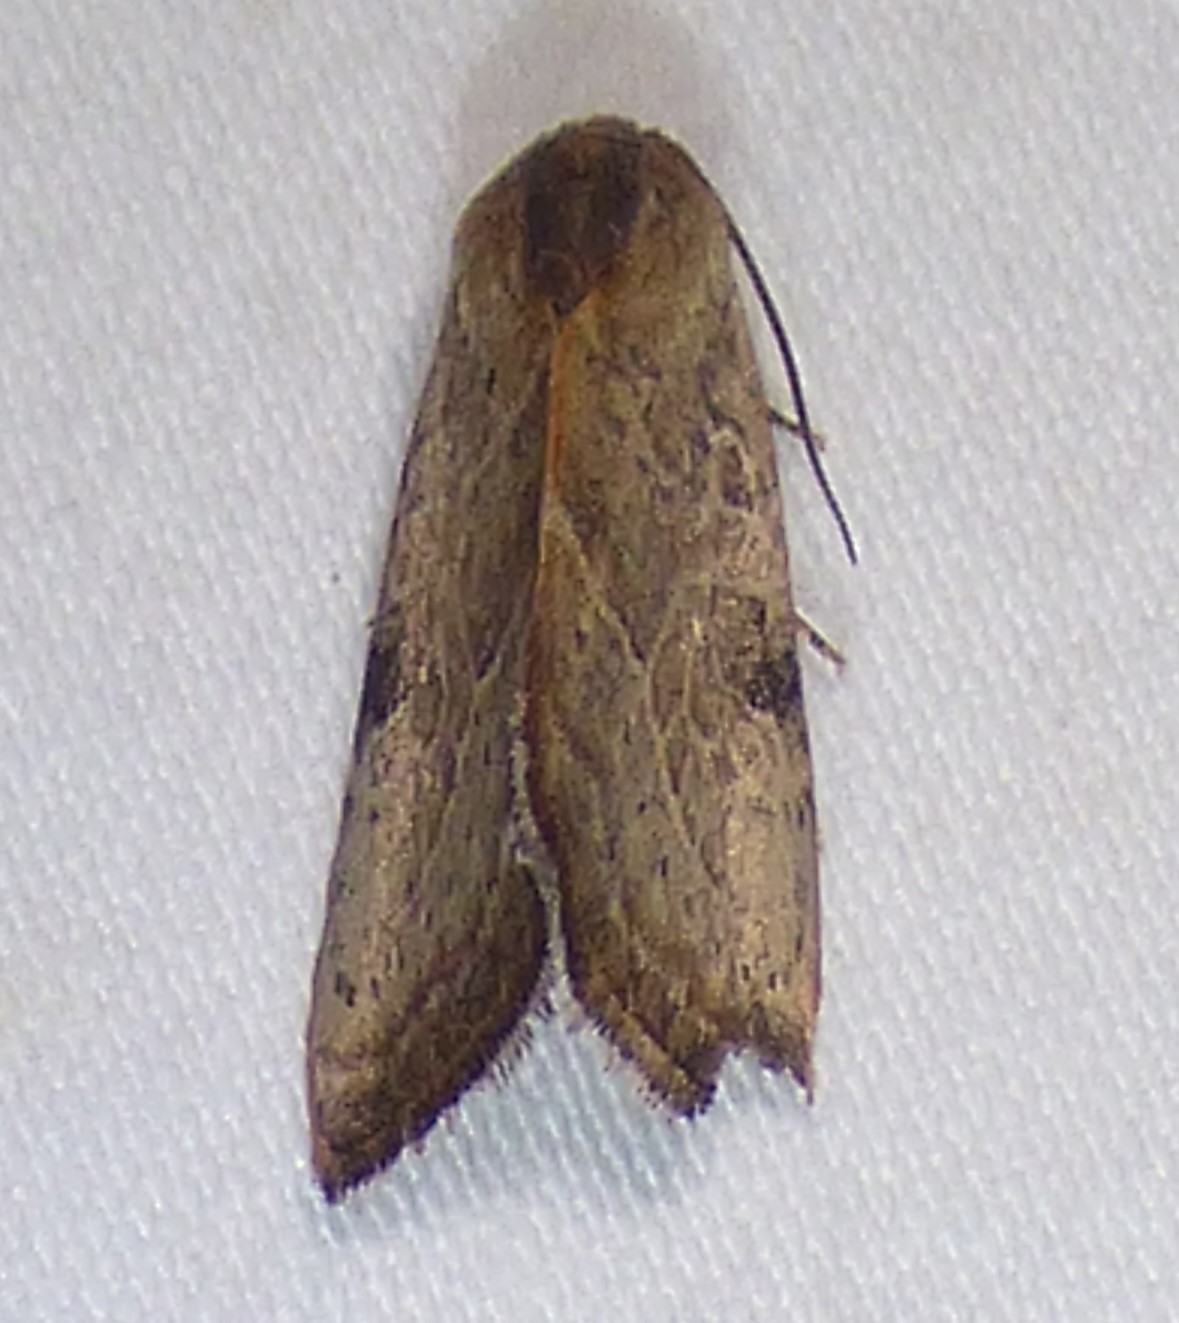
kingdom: Animalia
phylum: Arthropoda
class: Insecta
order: Lepidoptera
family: Noctuidae
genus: Galgula
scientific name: Galgula partita
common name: Wedgeling
